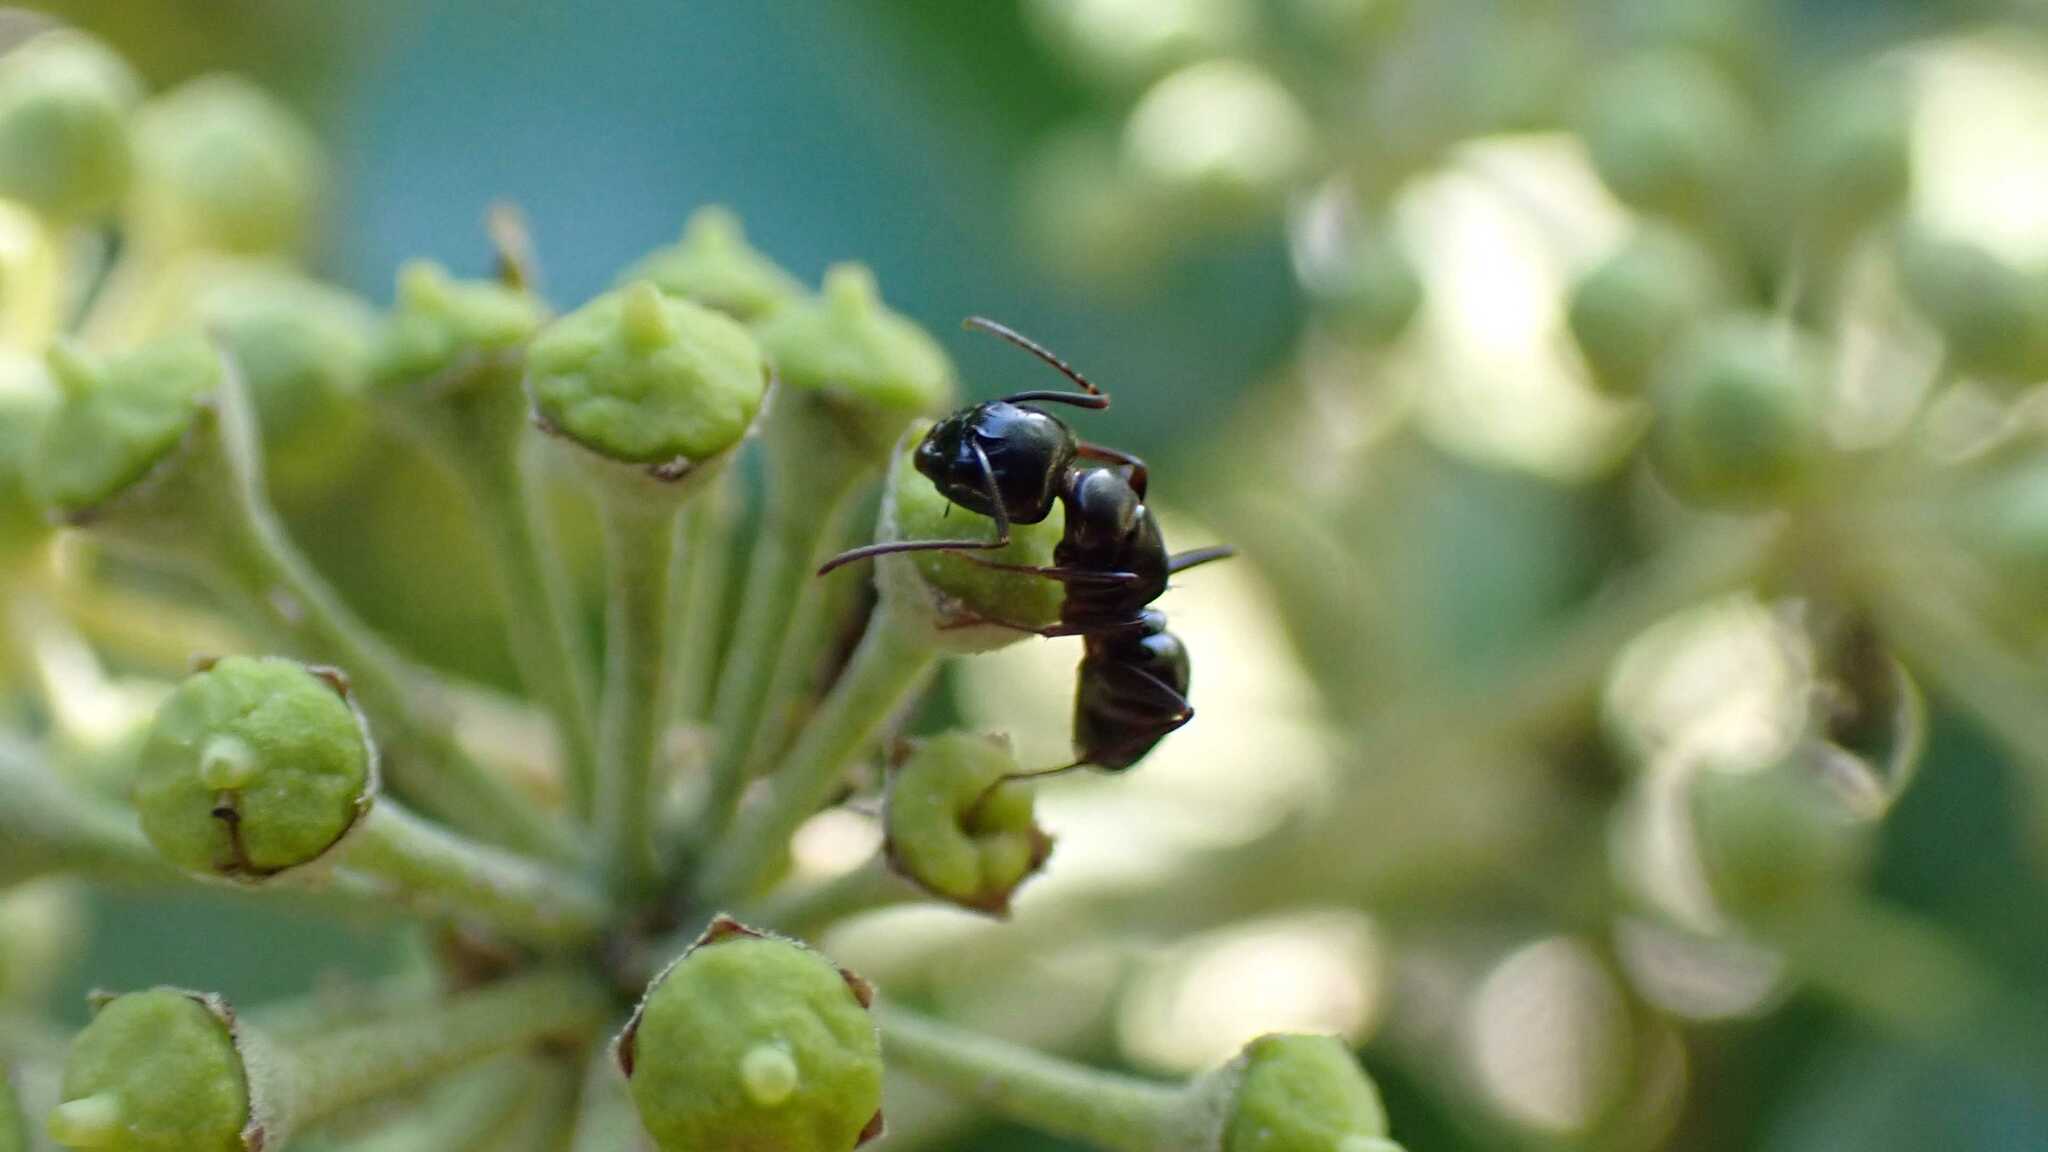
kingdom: Animalia
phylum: Arthropoda
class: Insecta
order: Hymenoptera
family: Formicidae
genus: Camponotus
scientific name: Camponotus fallax
